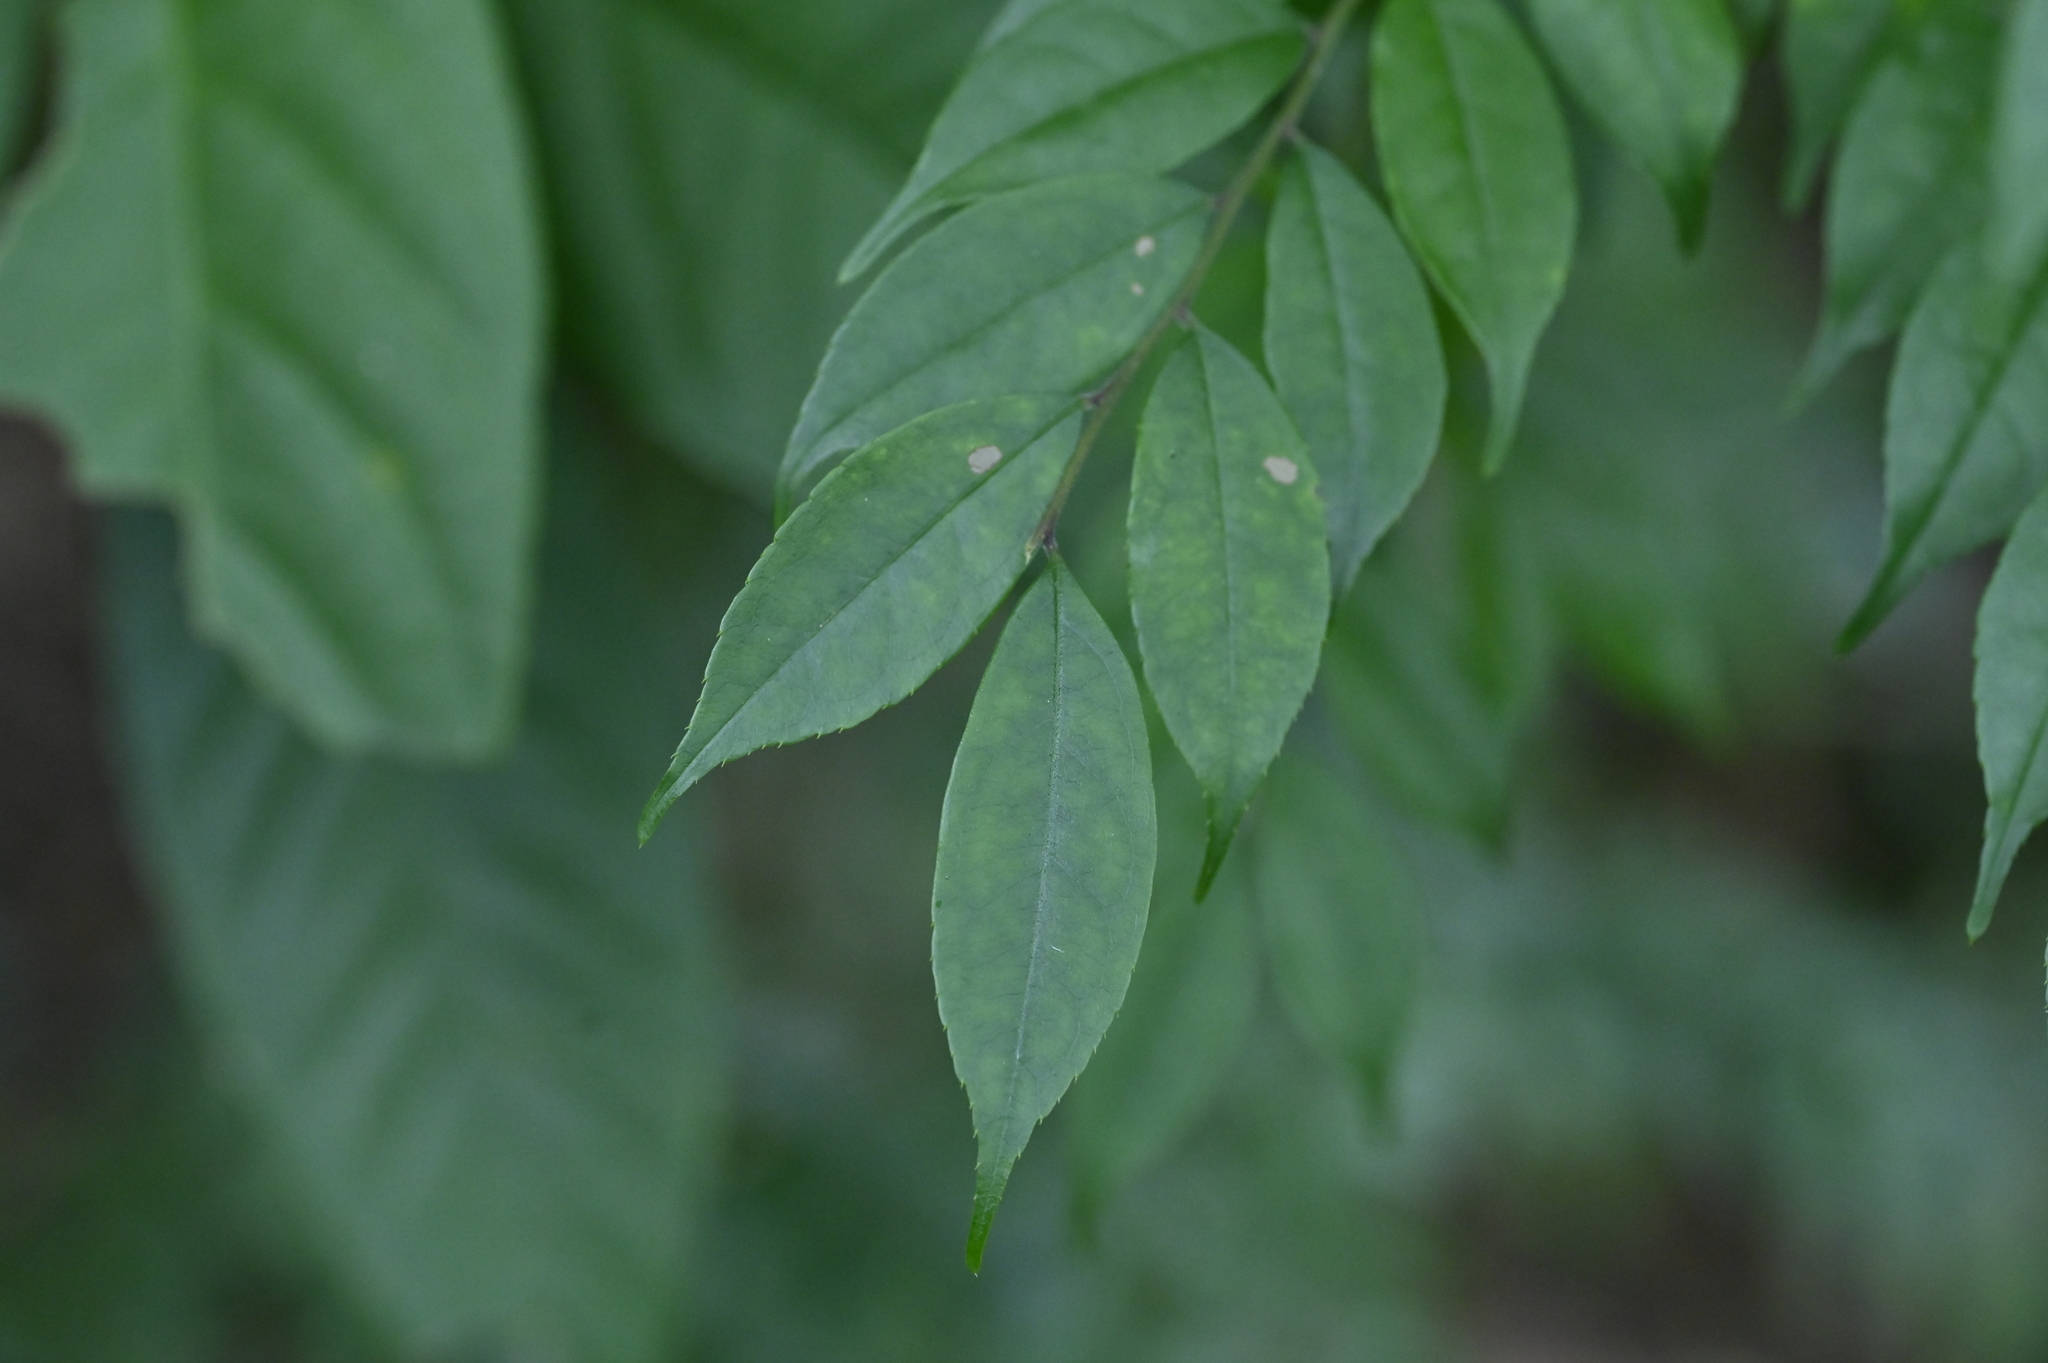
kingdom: Plantae
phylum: Tracheophyta
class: Magnoliopsida
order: Ericales
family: Pentaphylacaceae
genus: Eurya
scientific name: Eurya chinensis
